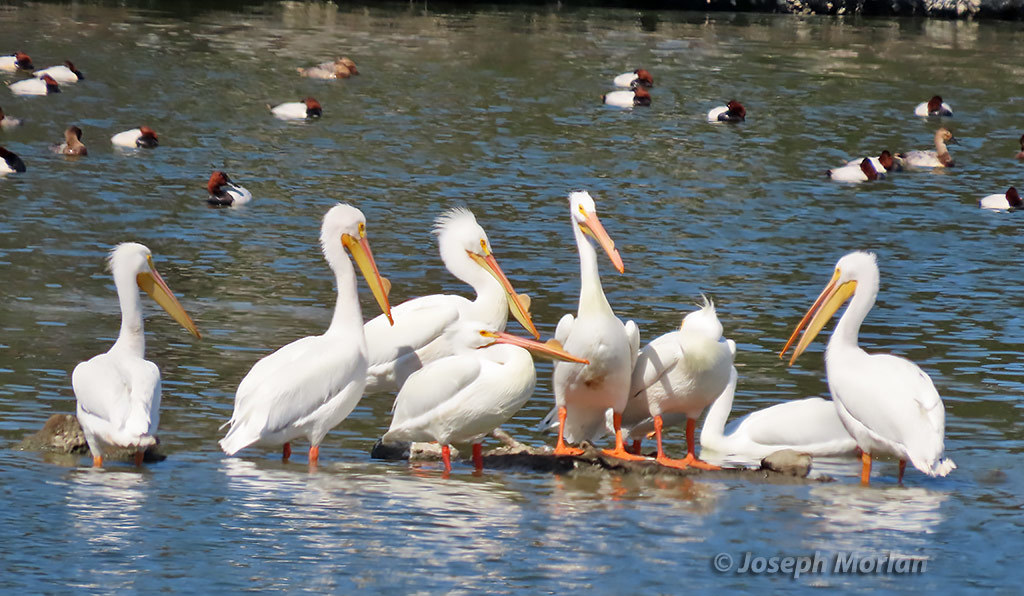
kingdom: Animalia
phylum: Chordata
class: Aves
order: Pelecaniformes
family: Pelecanidae
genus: Pelecanus
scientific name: Pelecanus erythrorhynchos
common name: American white pelican
